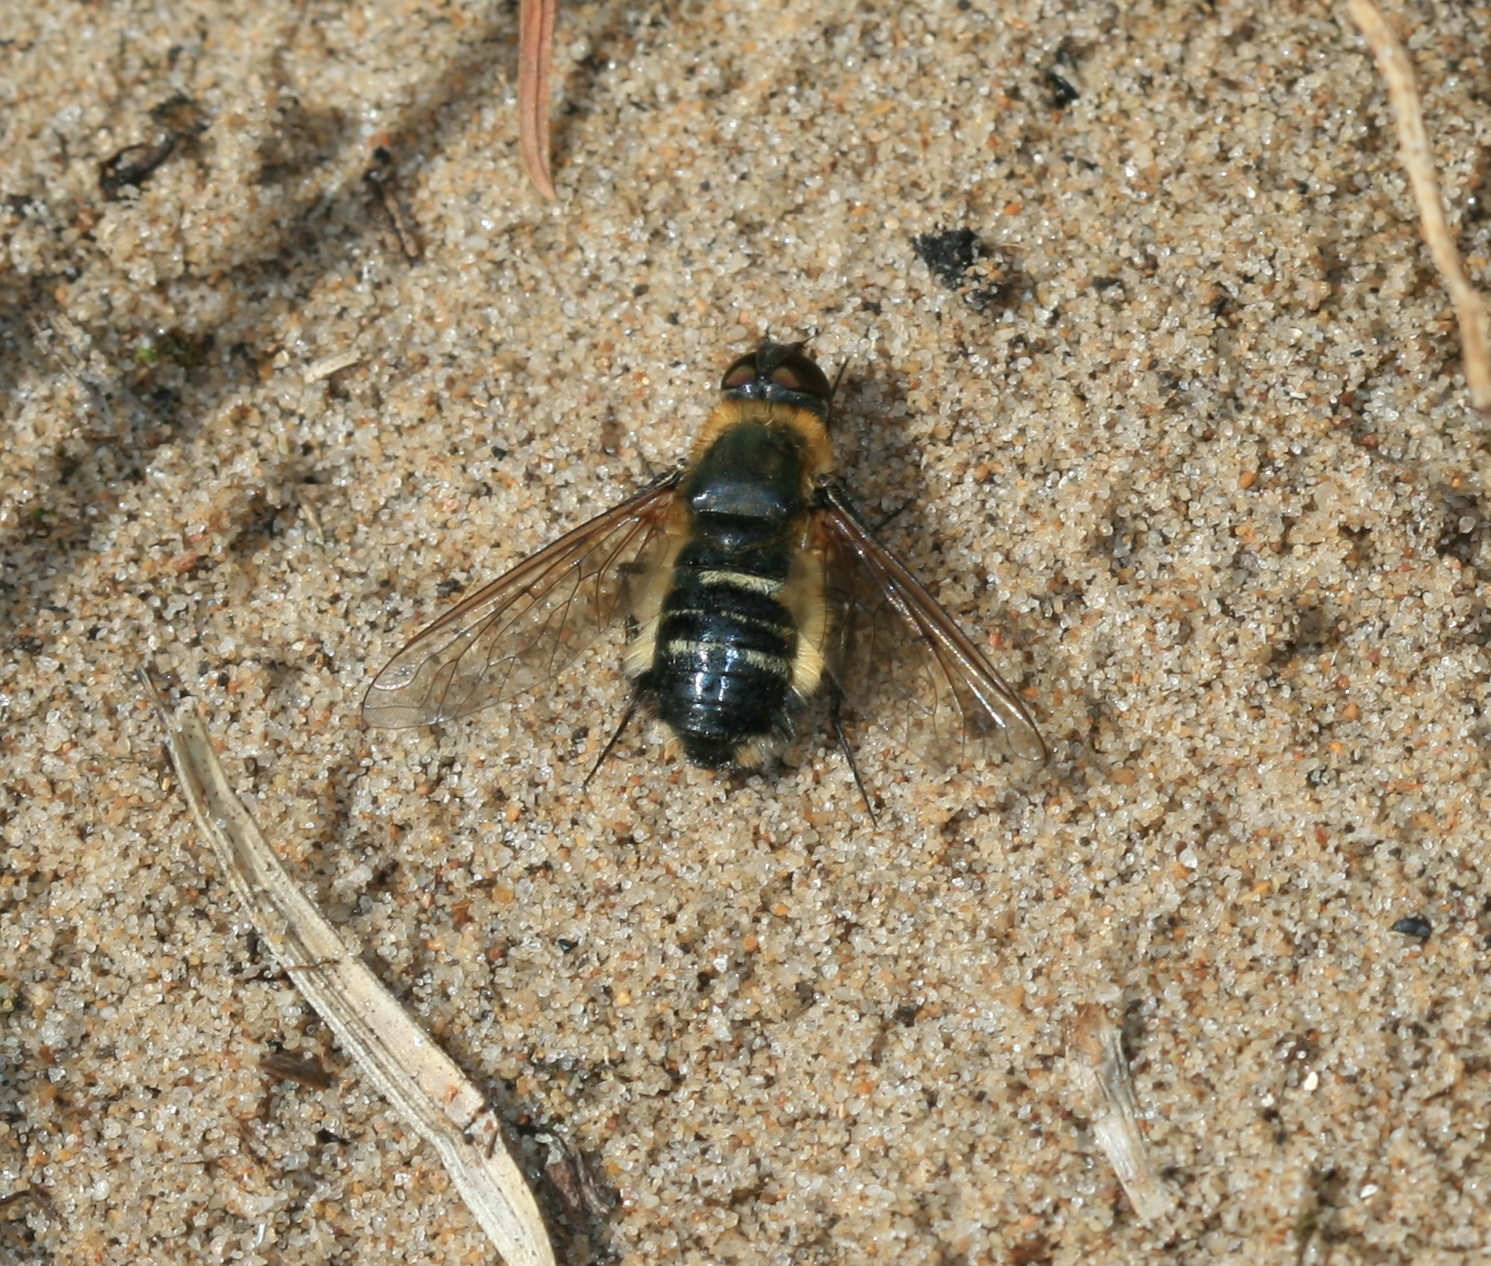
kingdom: Animalia
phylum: Arthropoda
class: Insecta
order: Diptera
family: Bombyliidae
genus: Villa
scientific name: Villa modesta
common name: Dune villa
